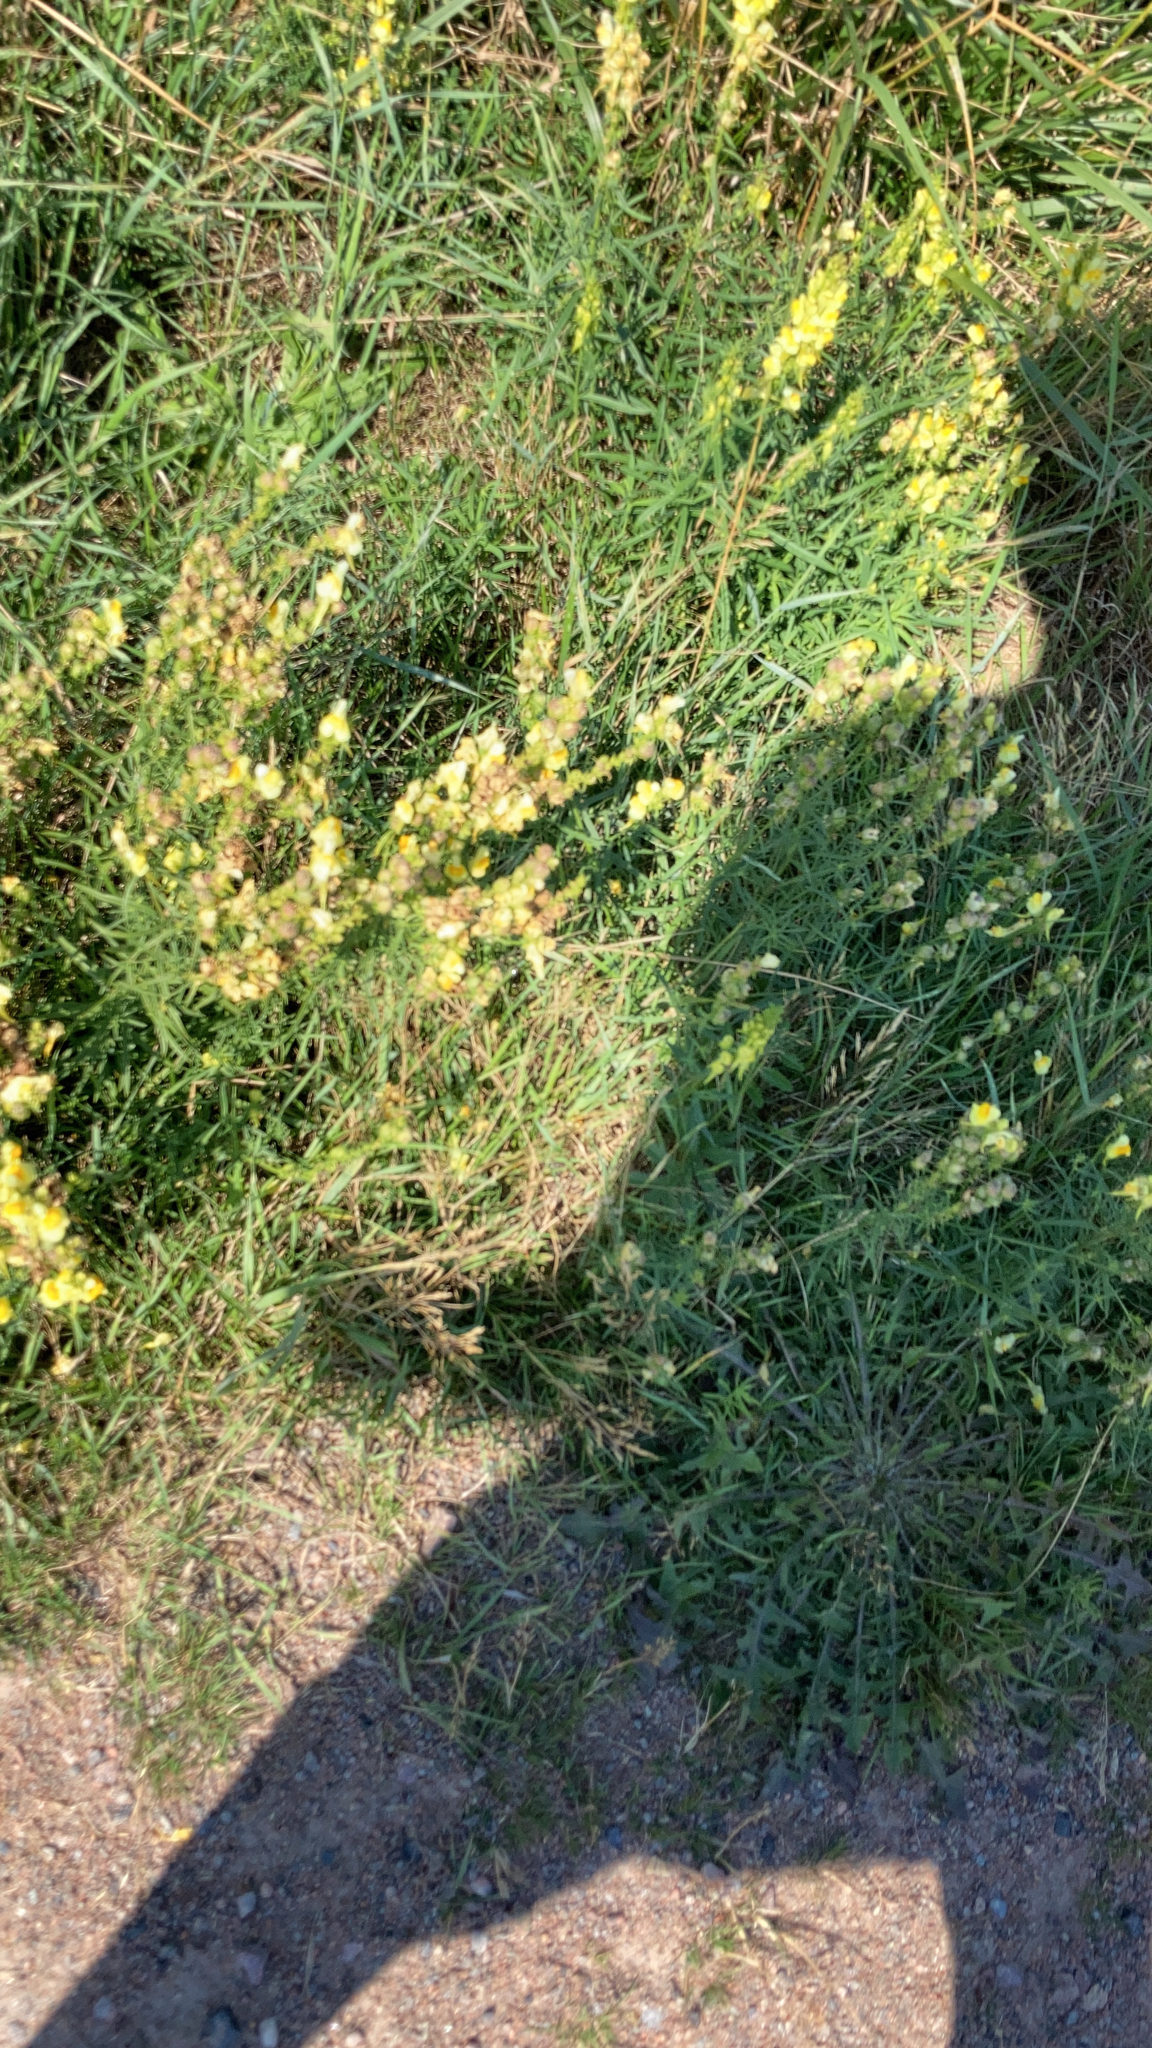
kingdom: Plantae
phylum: Tracheophyta
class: Magnoliopsida
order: Lamiales
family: Plantaginaceae
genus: Linaria
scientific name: Linaria vulgaris
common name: Butter and eggs
